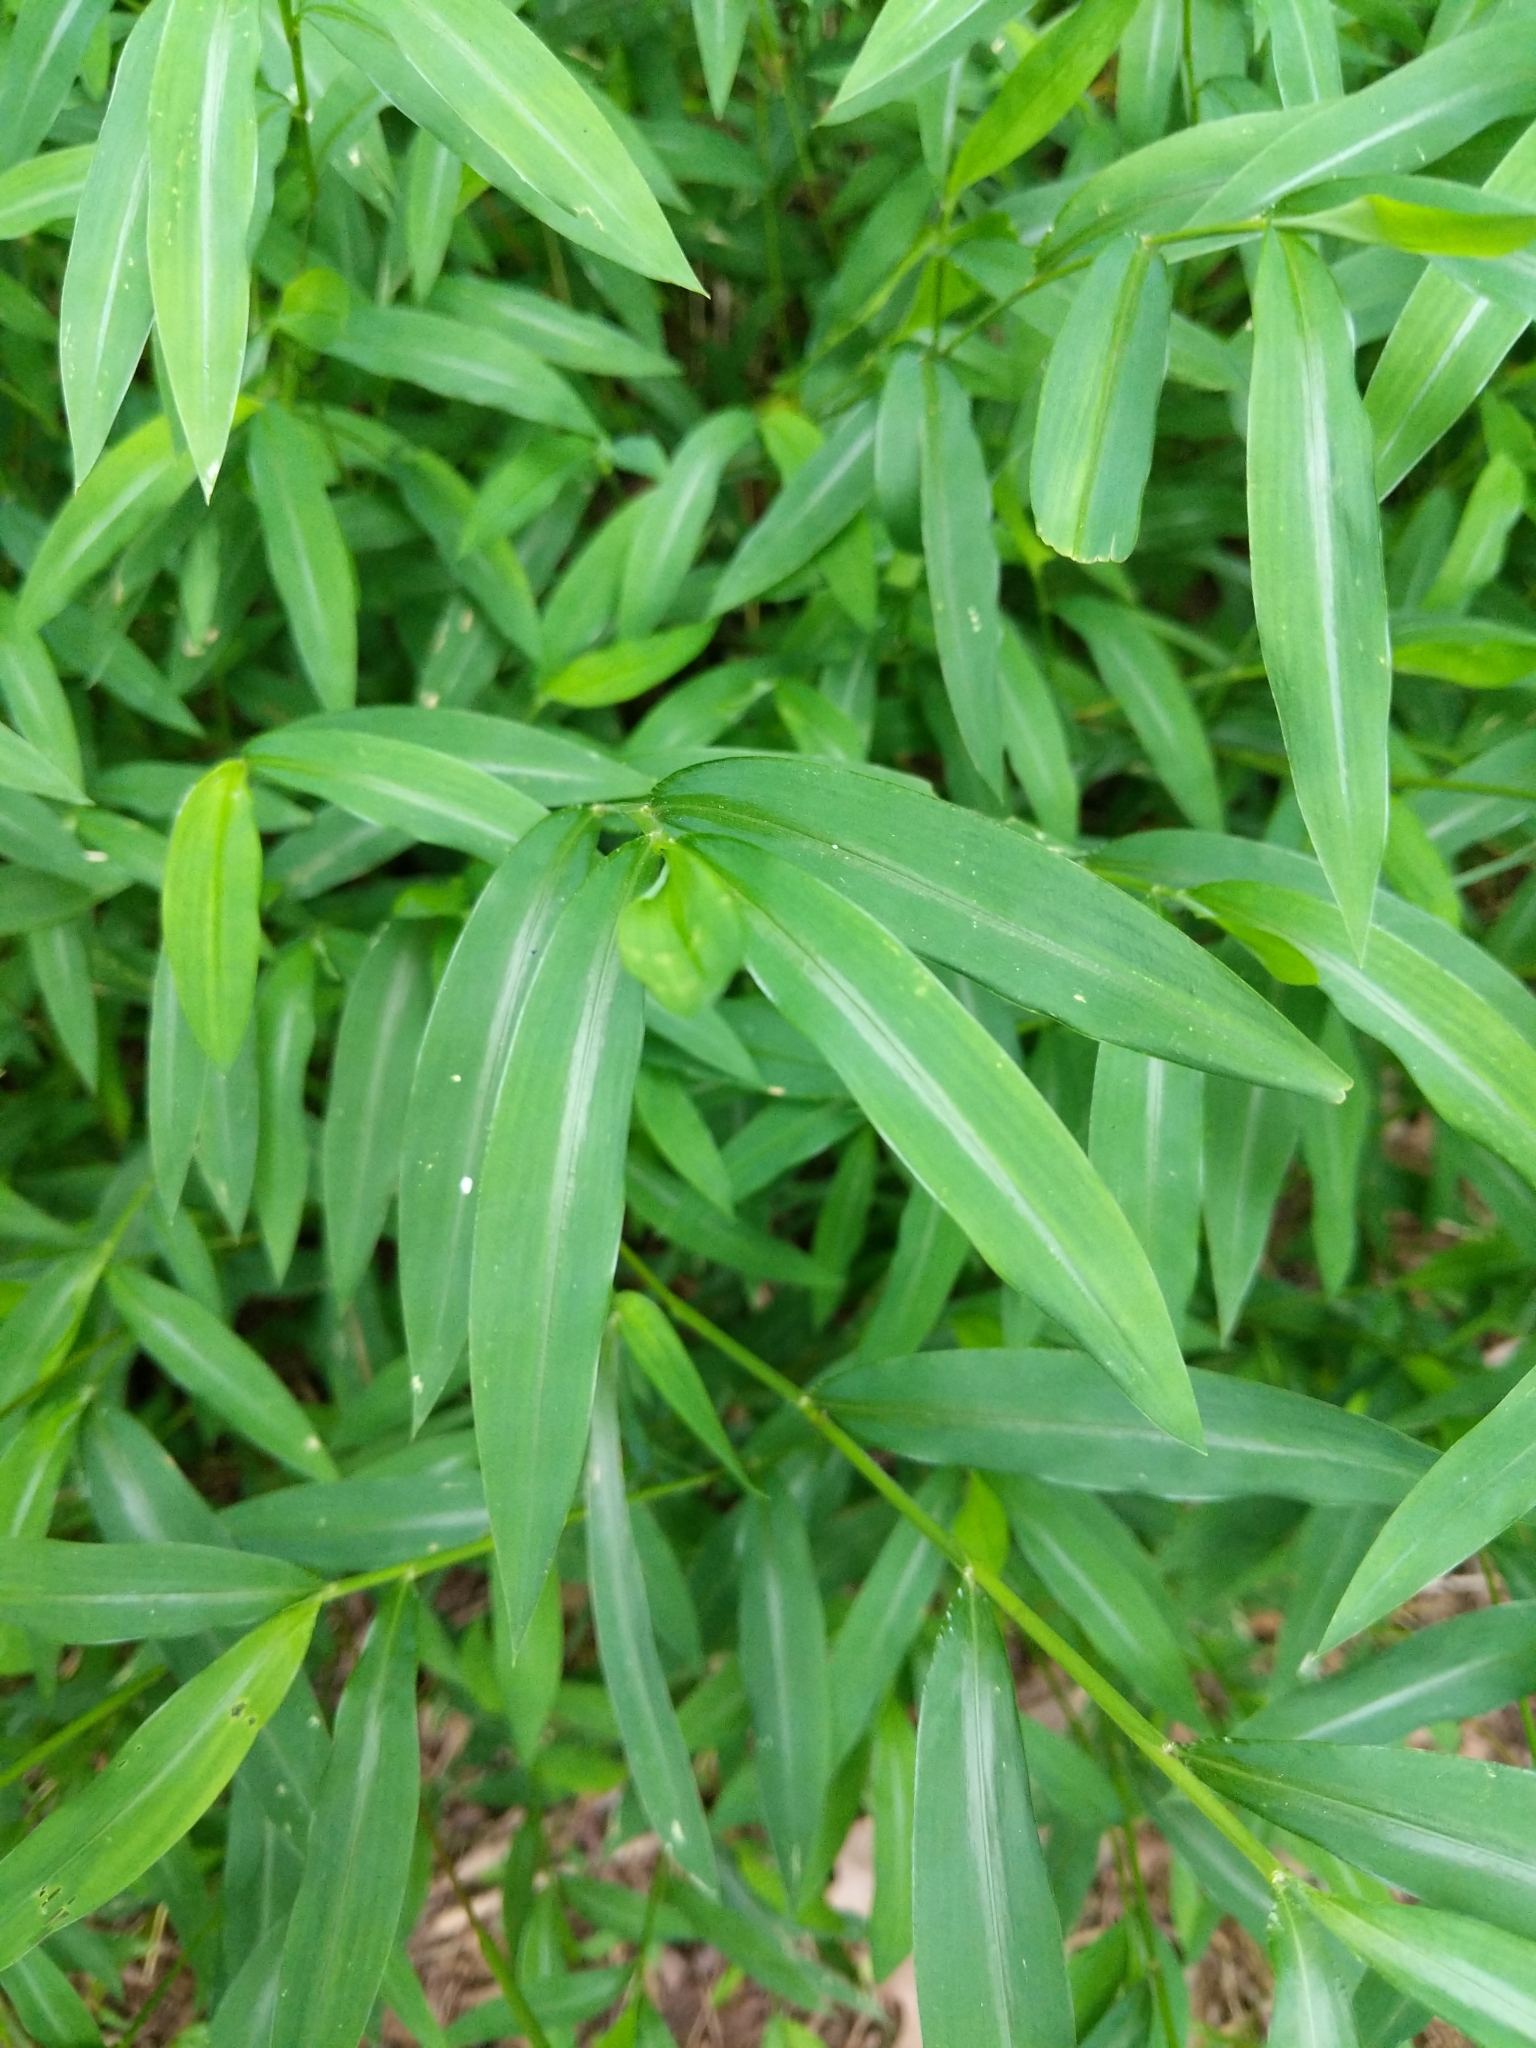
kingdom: Plantae
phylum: Tracheophyta
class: Liliopsida
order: Poales
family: Poaceae
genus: Microstegium
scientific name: Microstegium vimineum
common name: Japanese stiltgrass
